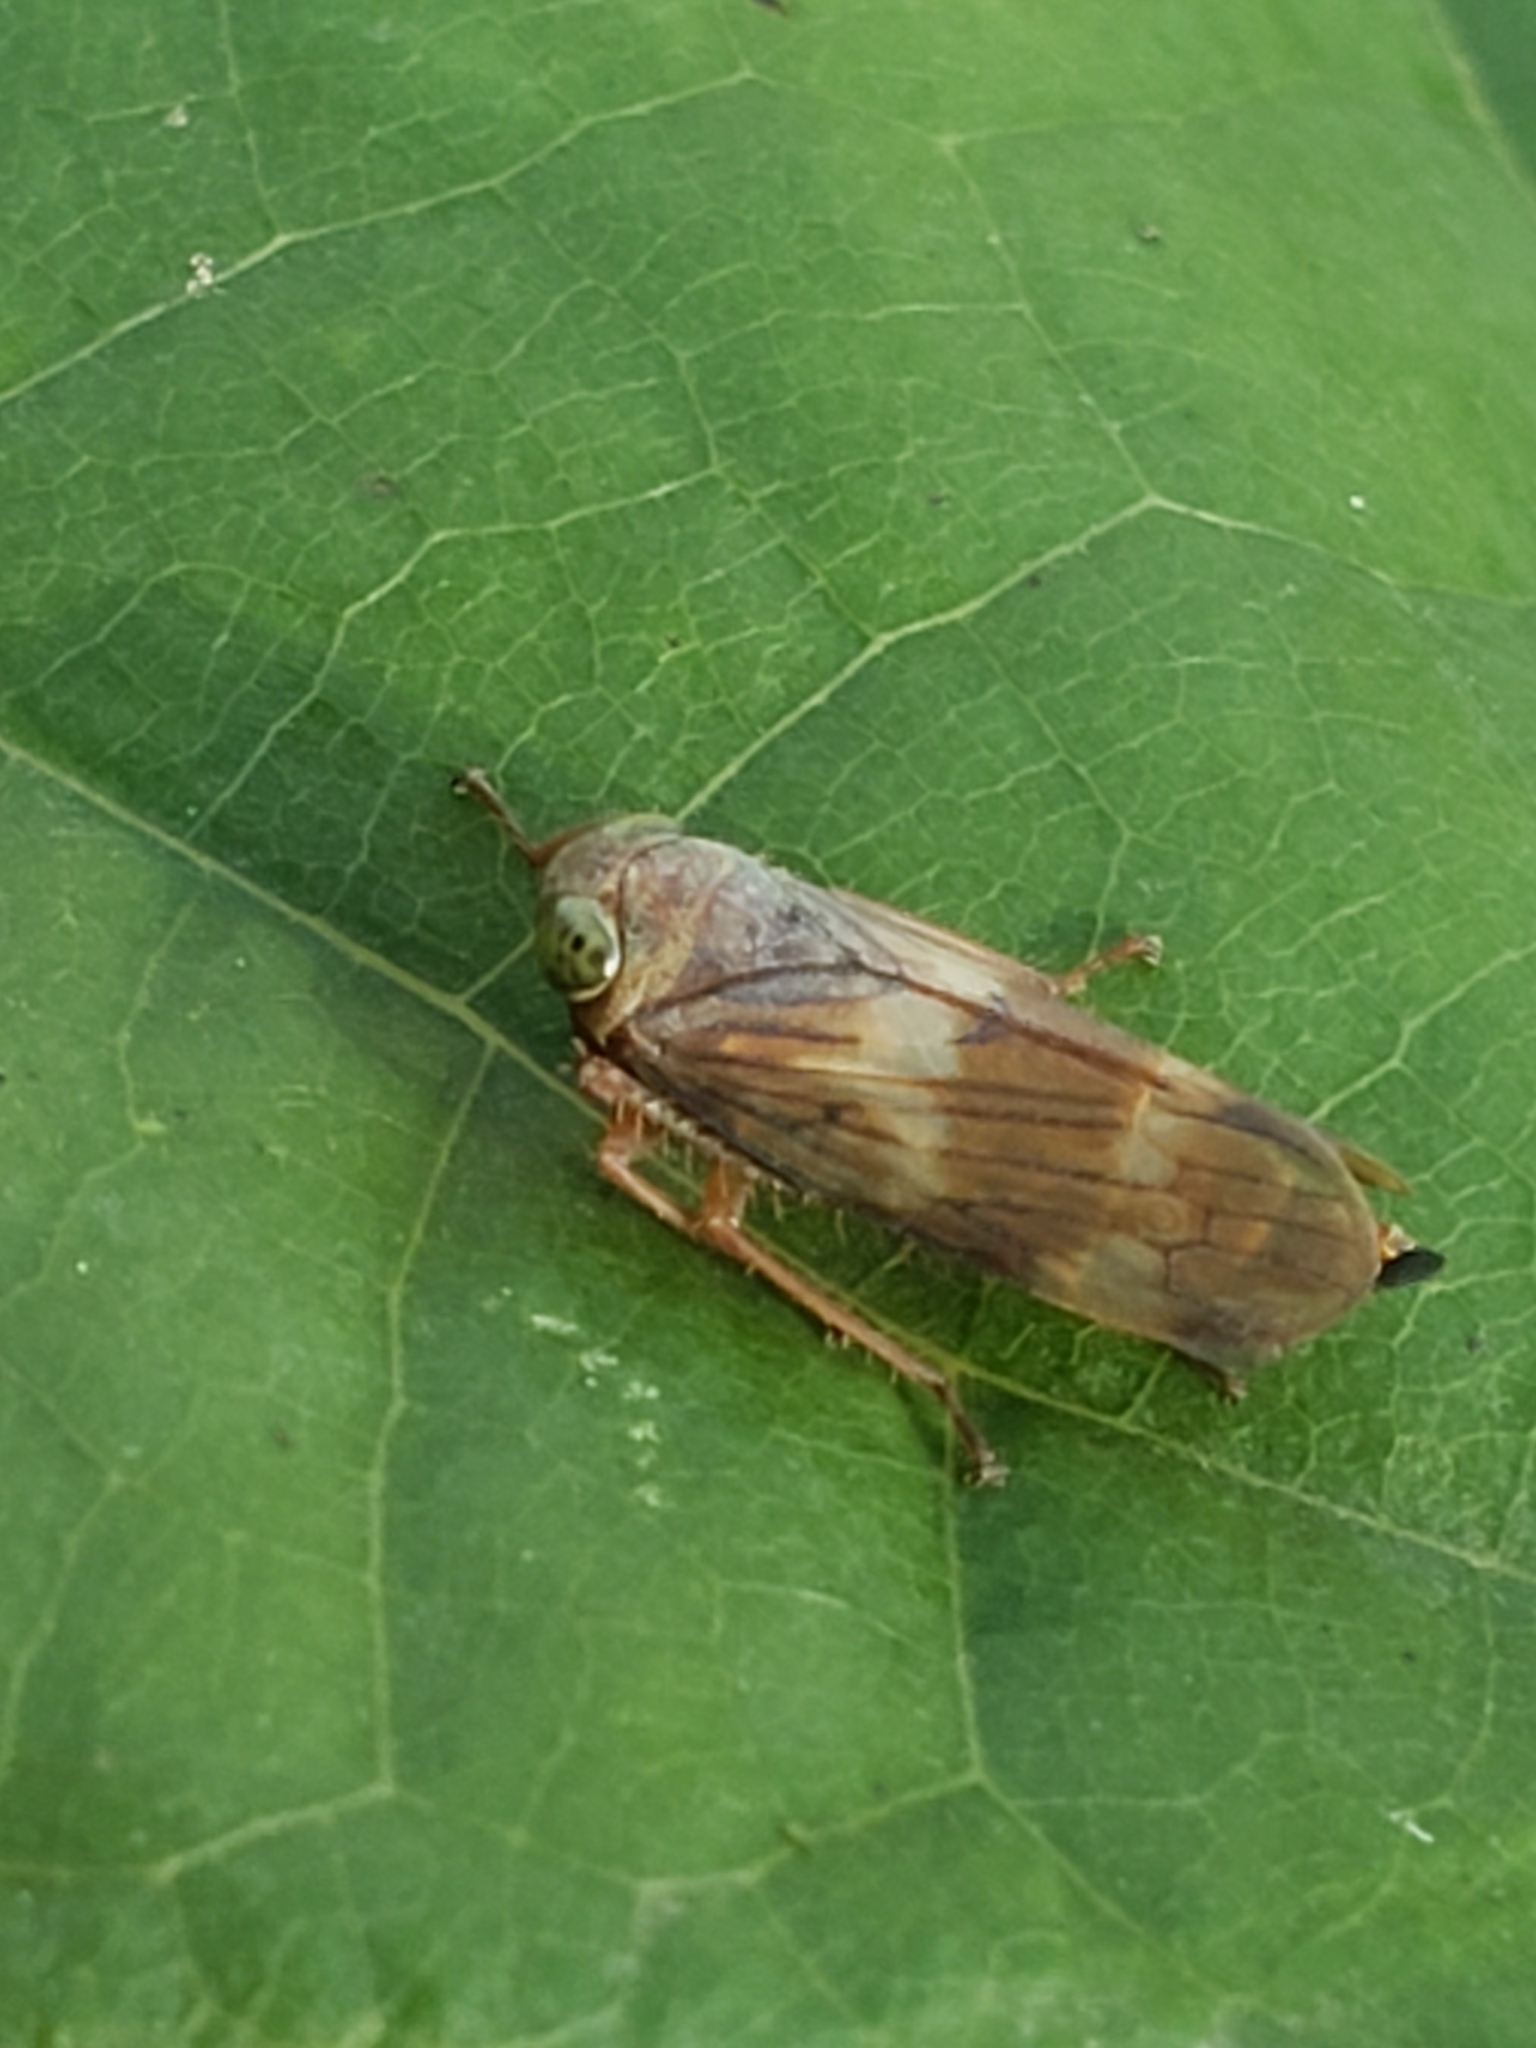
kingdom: Animalia
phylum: Arthropoda
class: Insecta
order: Hemiptera
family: Cicadellidae
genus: Jikradia
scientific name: Jikradia olitoria
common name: Coppery leafhopper
